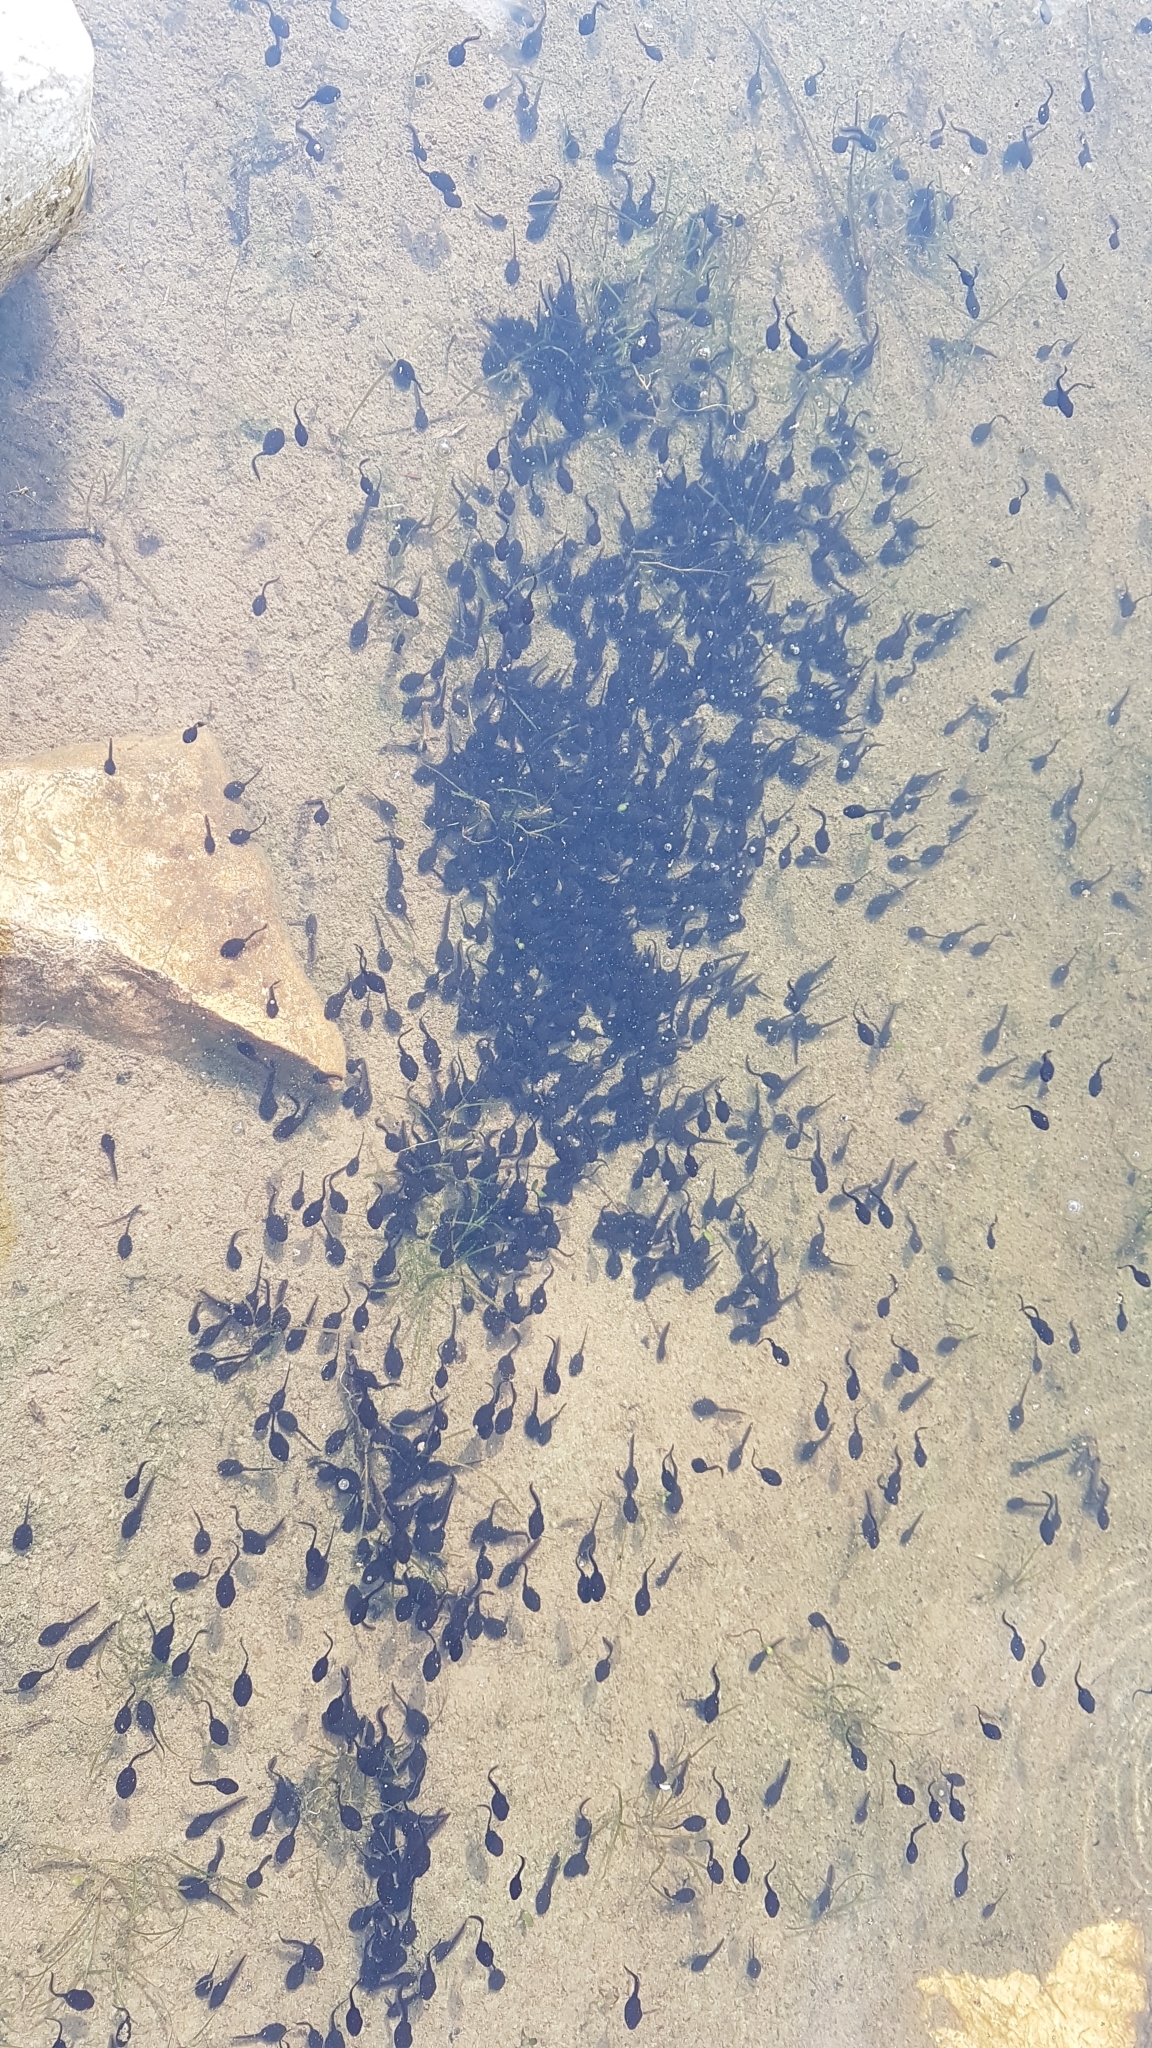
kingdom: Animalia
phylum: Chordata
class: Amphibia
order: Anura
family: Bufonidae
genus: Bufo
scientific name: Bufo bufo
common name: Common toad
